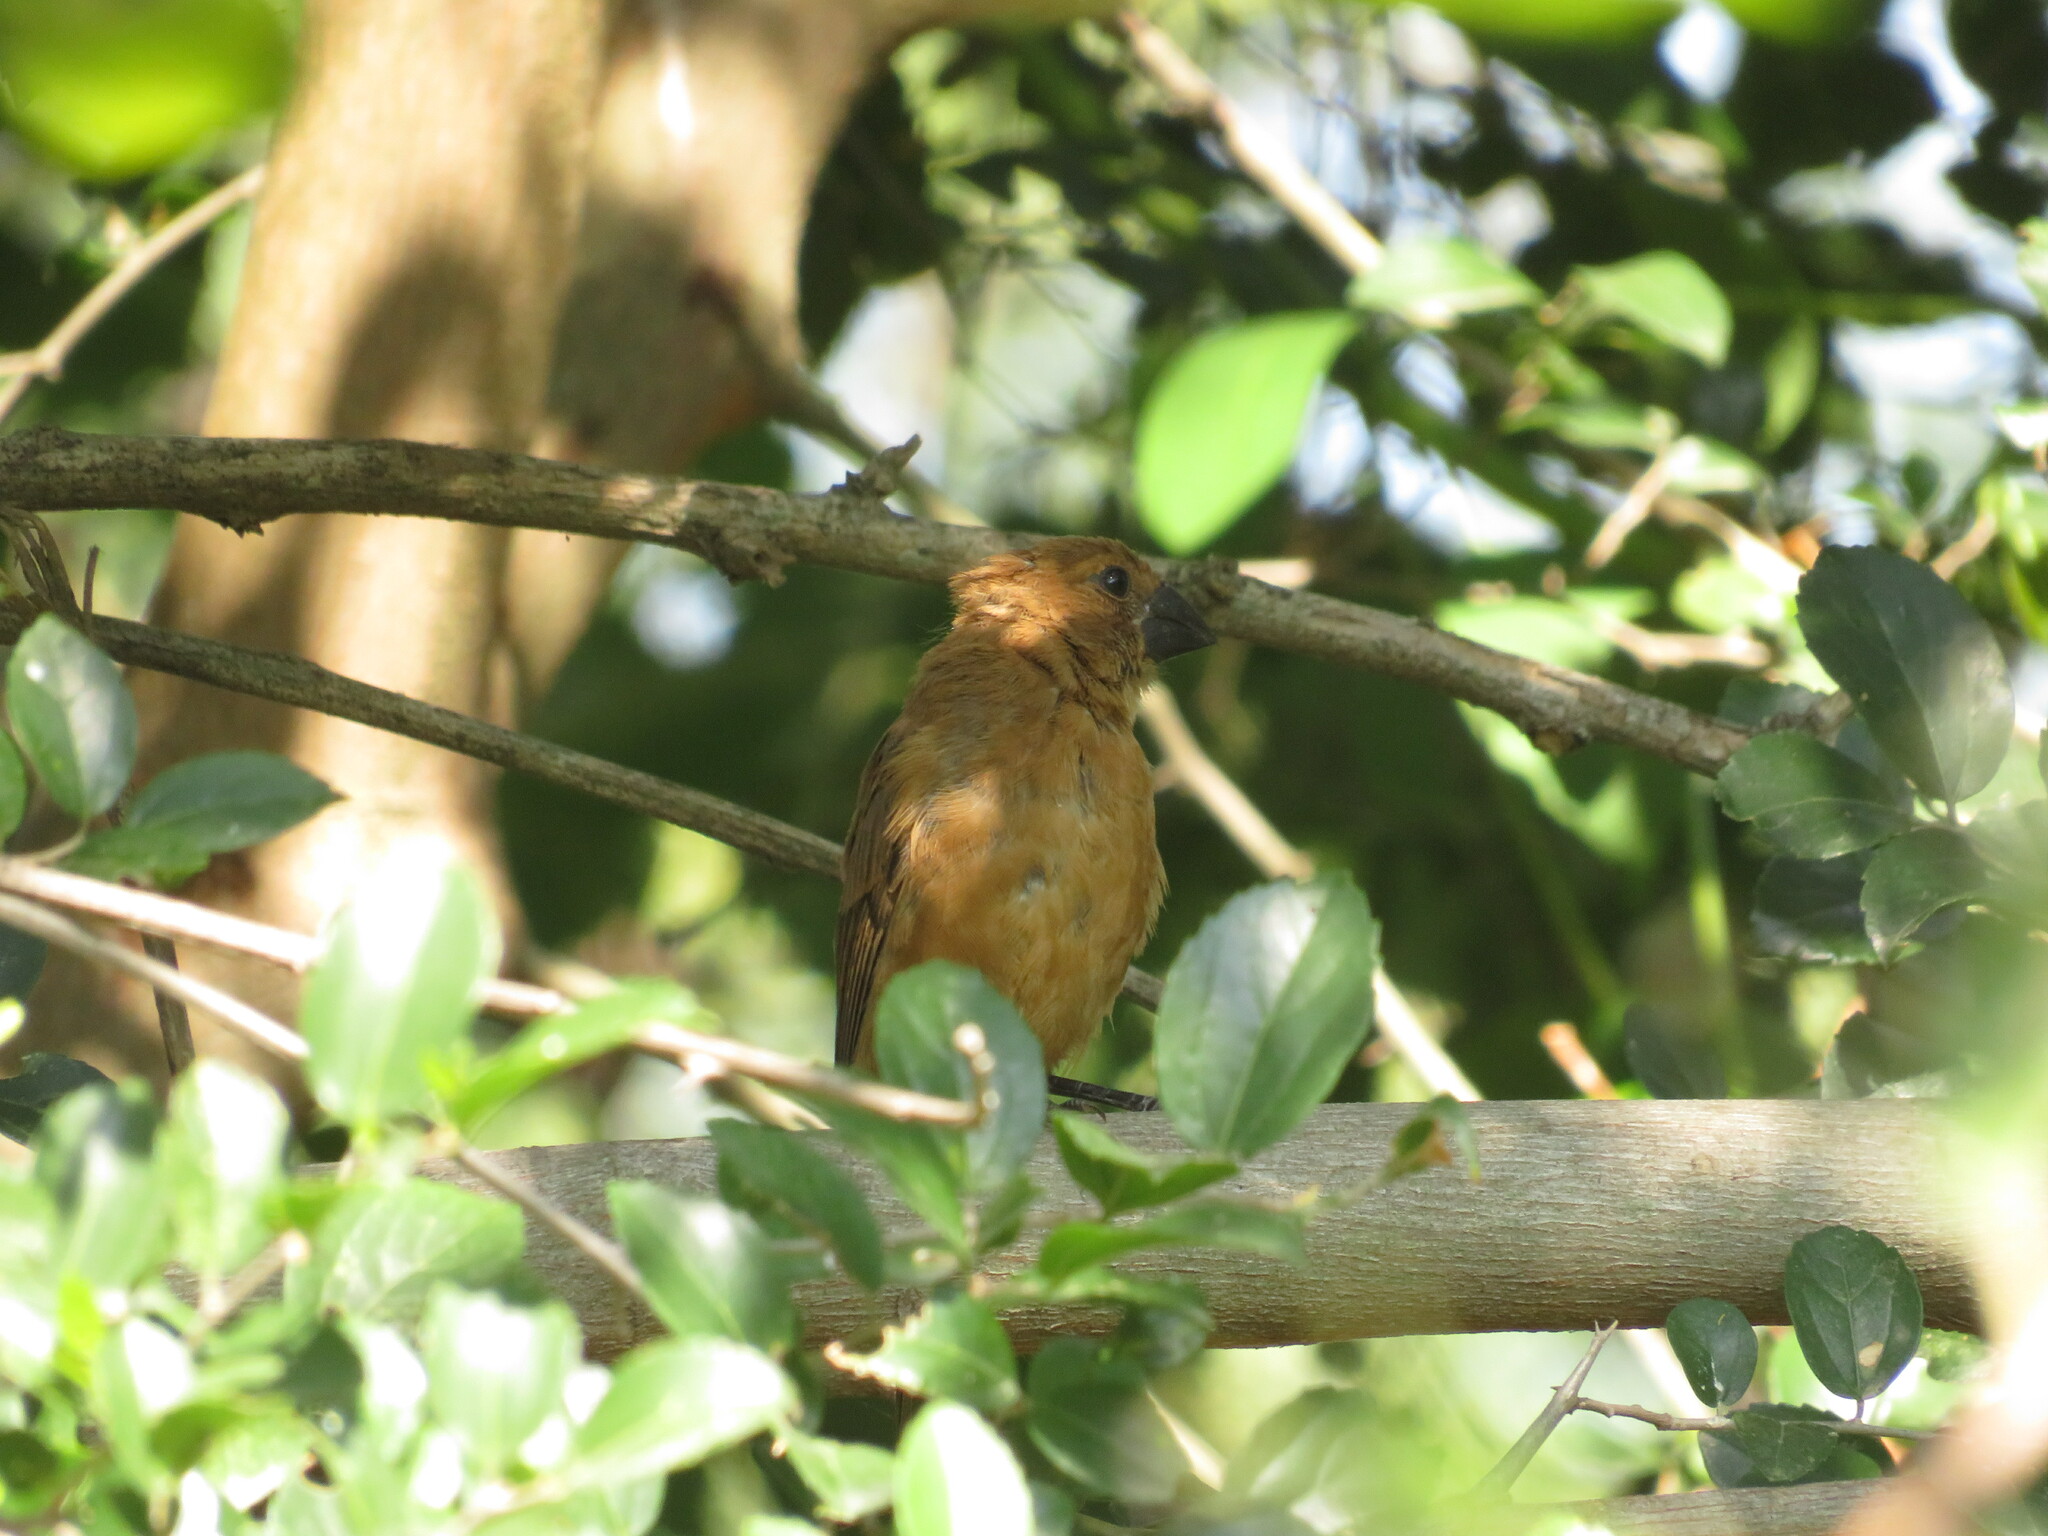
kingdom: Animalia
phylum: Chordata
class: Aves
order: Passeriformes
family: Cardinalidae
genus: Cyanoloxia
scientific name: Cyanoloxia brissonii
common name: Ultramarine grosbeak
